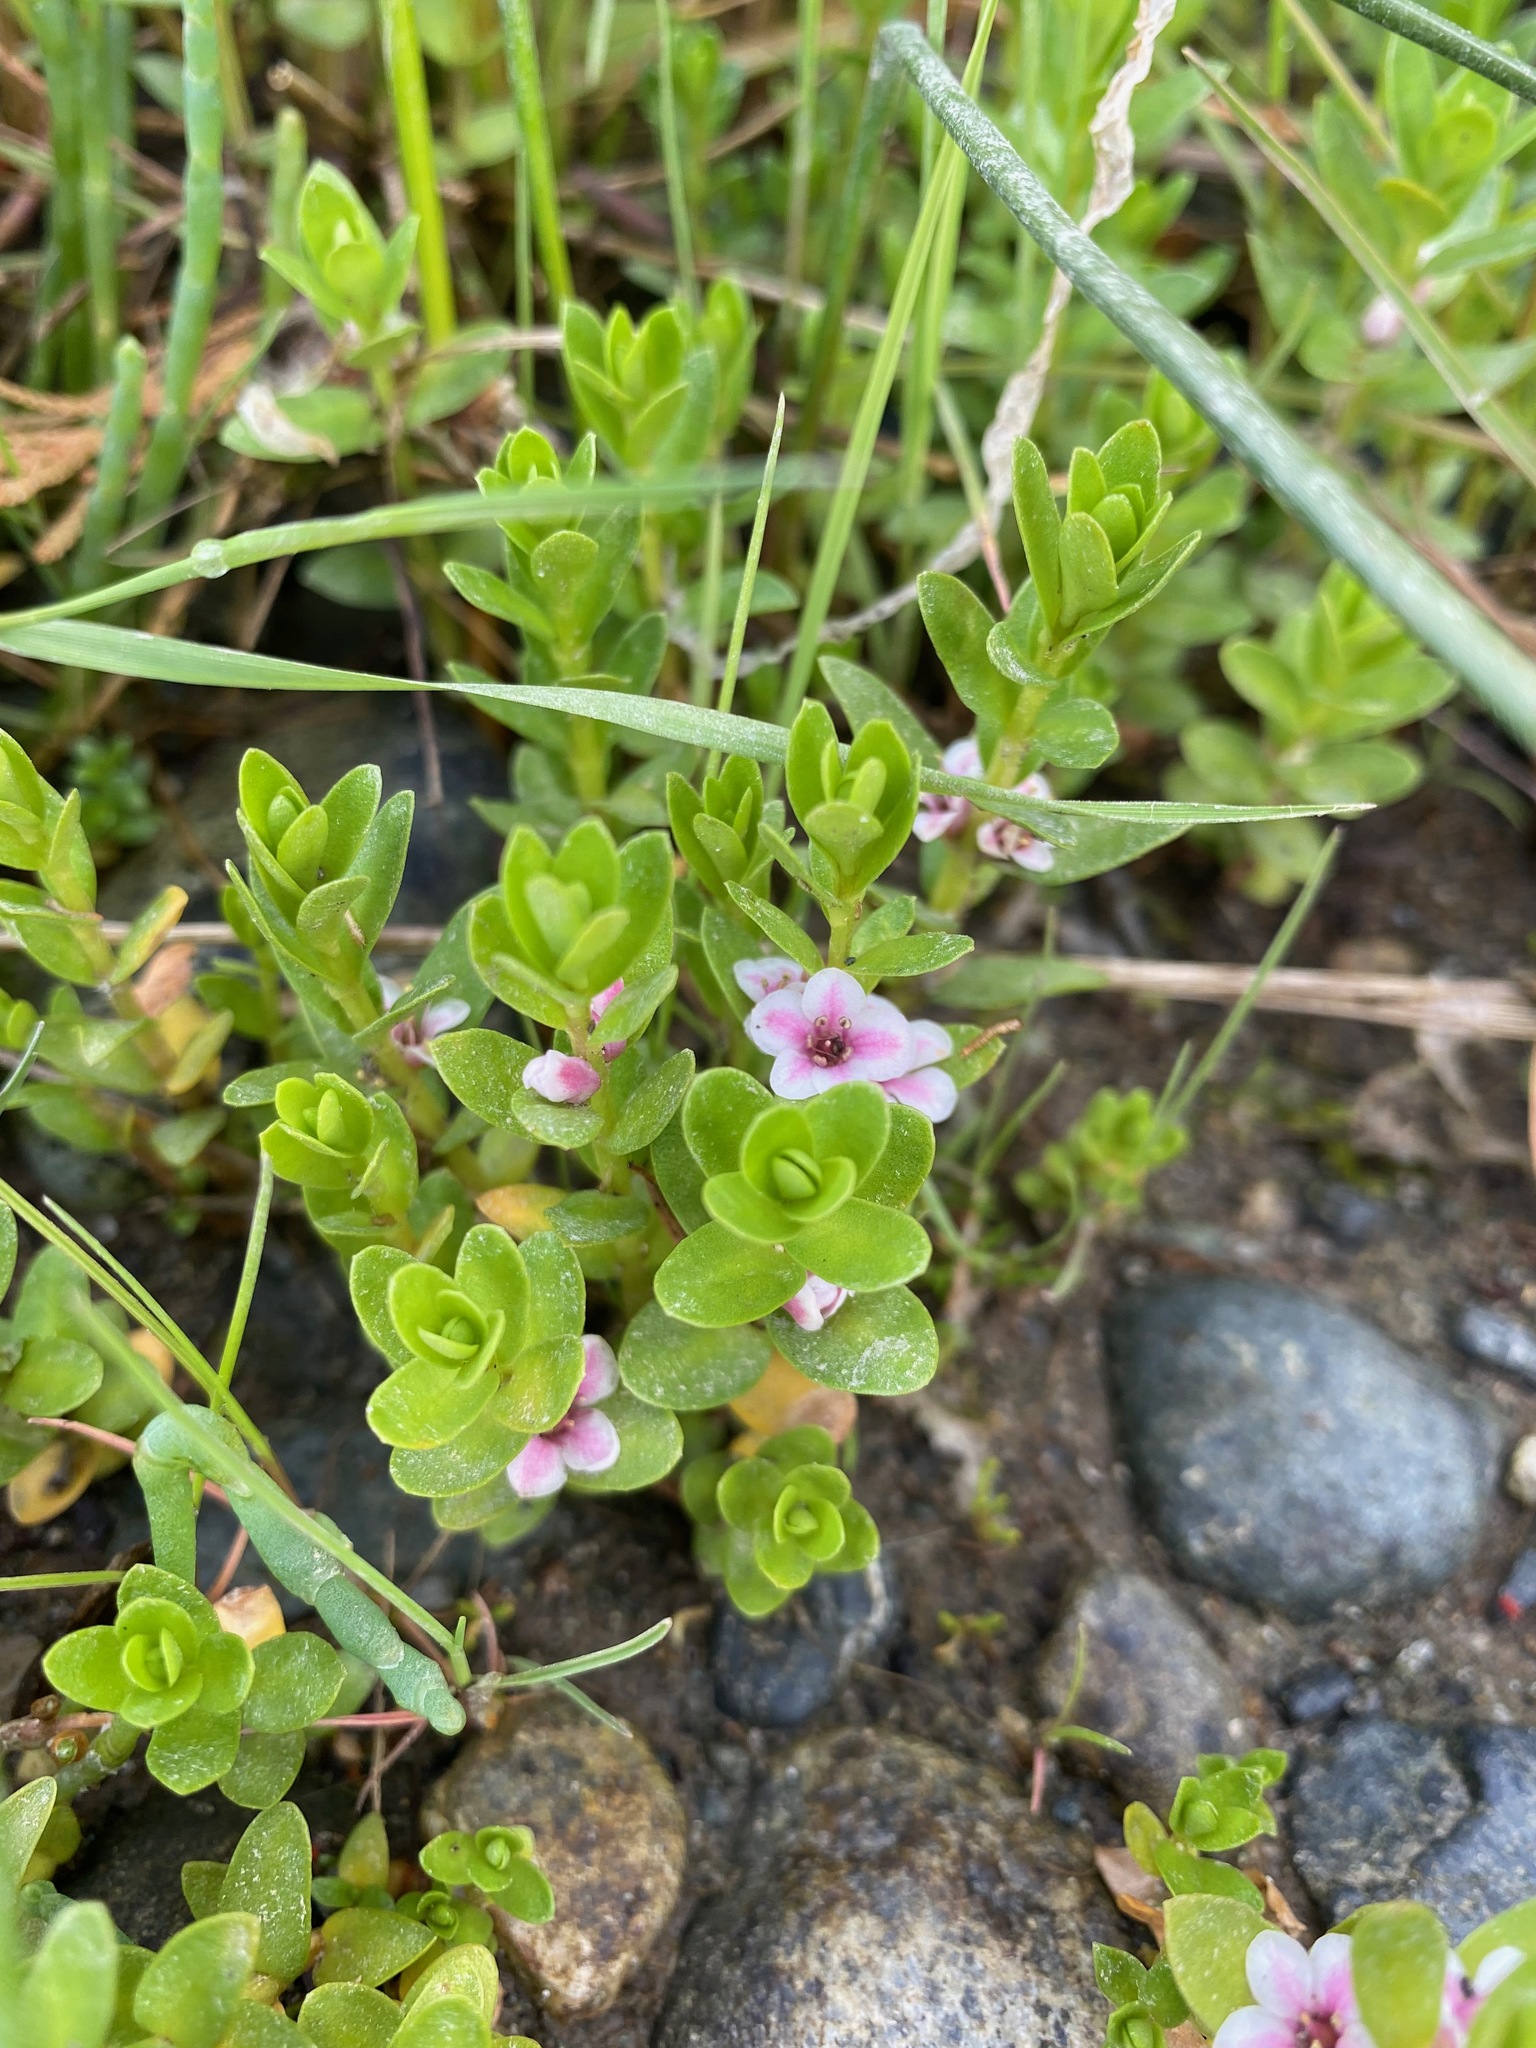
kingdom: Plantae
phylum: Tracheophyta
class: Magnoliopsida
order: Ericales
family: Primulaceae
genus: Lysimachia
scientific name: Lysimachia maritima
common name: Sea milkwort
